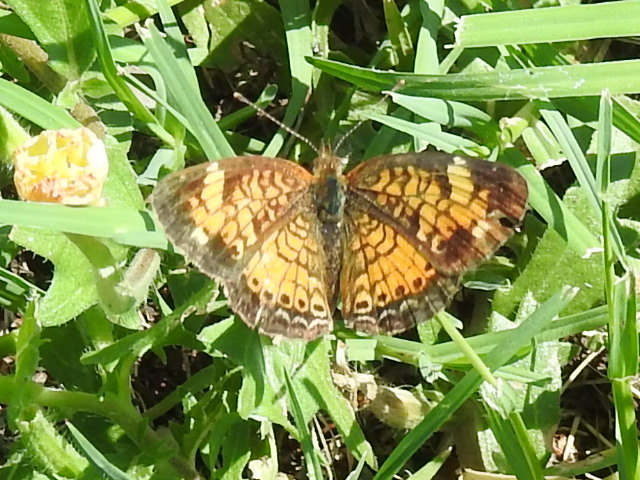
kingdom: Animalia
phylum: Arthropoda
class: Insecta
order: Lepidoptera
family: Nymphalidae
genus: Phyciodes
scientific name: Phyciodes tharos
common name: Pearl crescent
